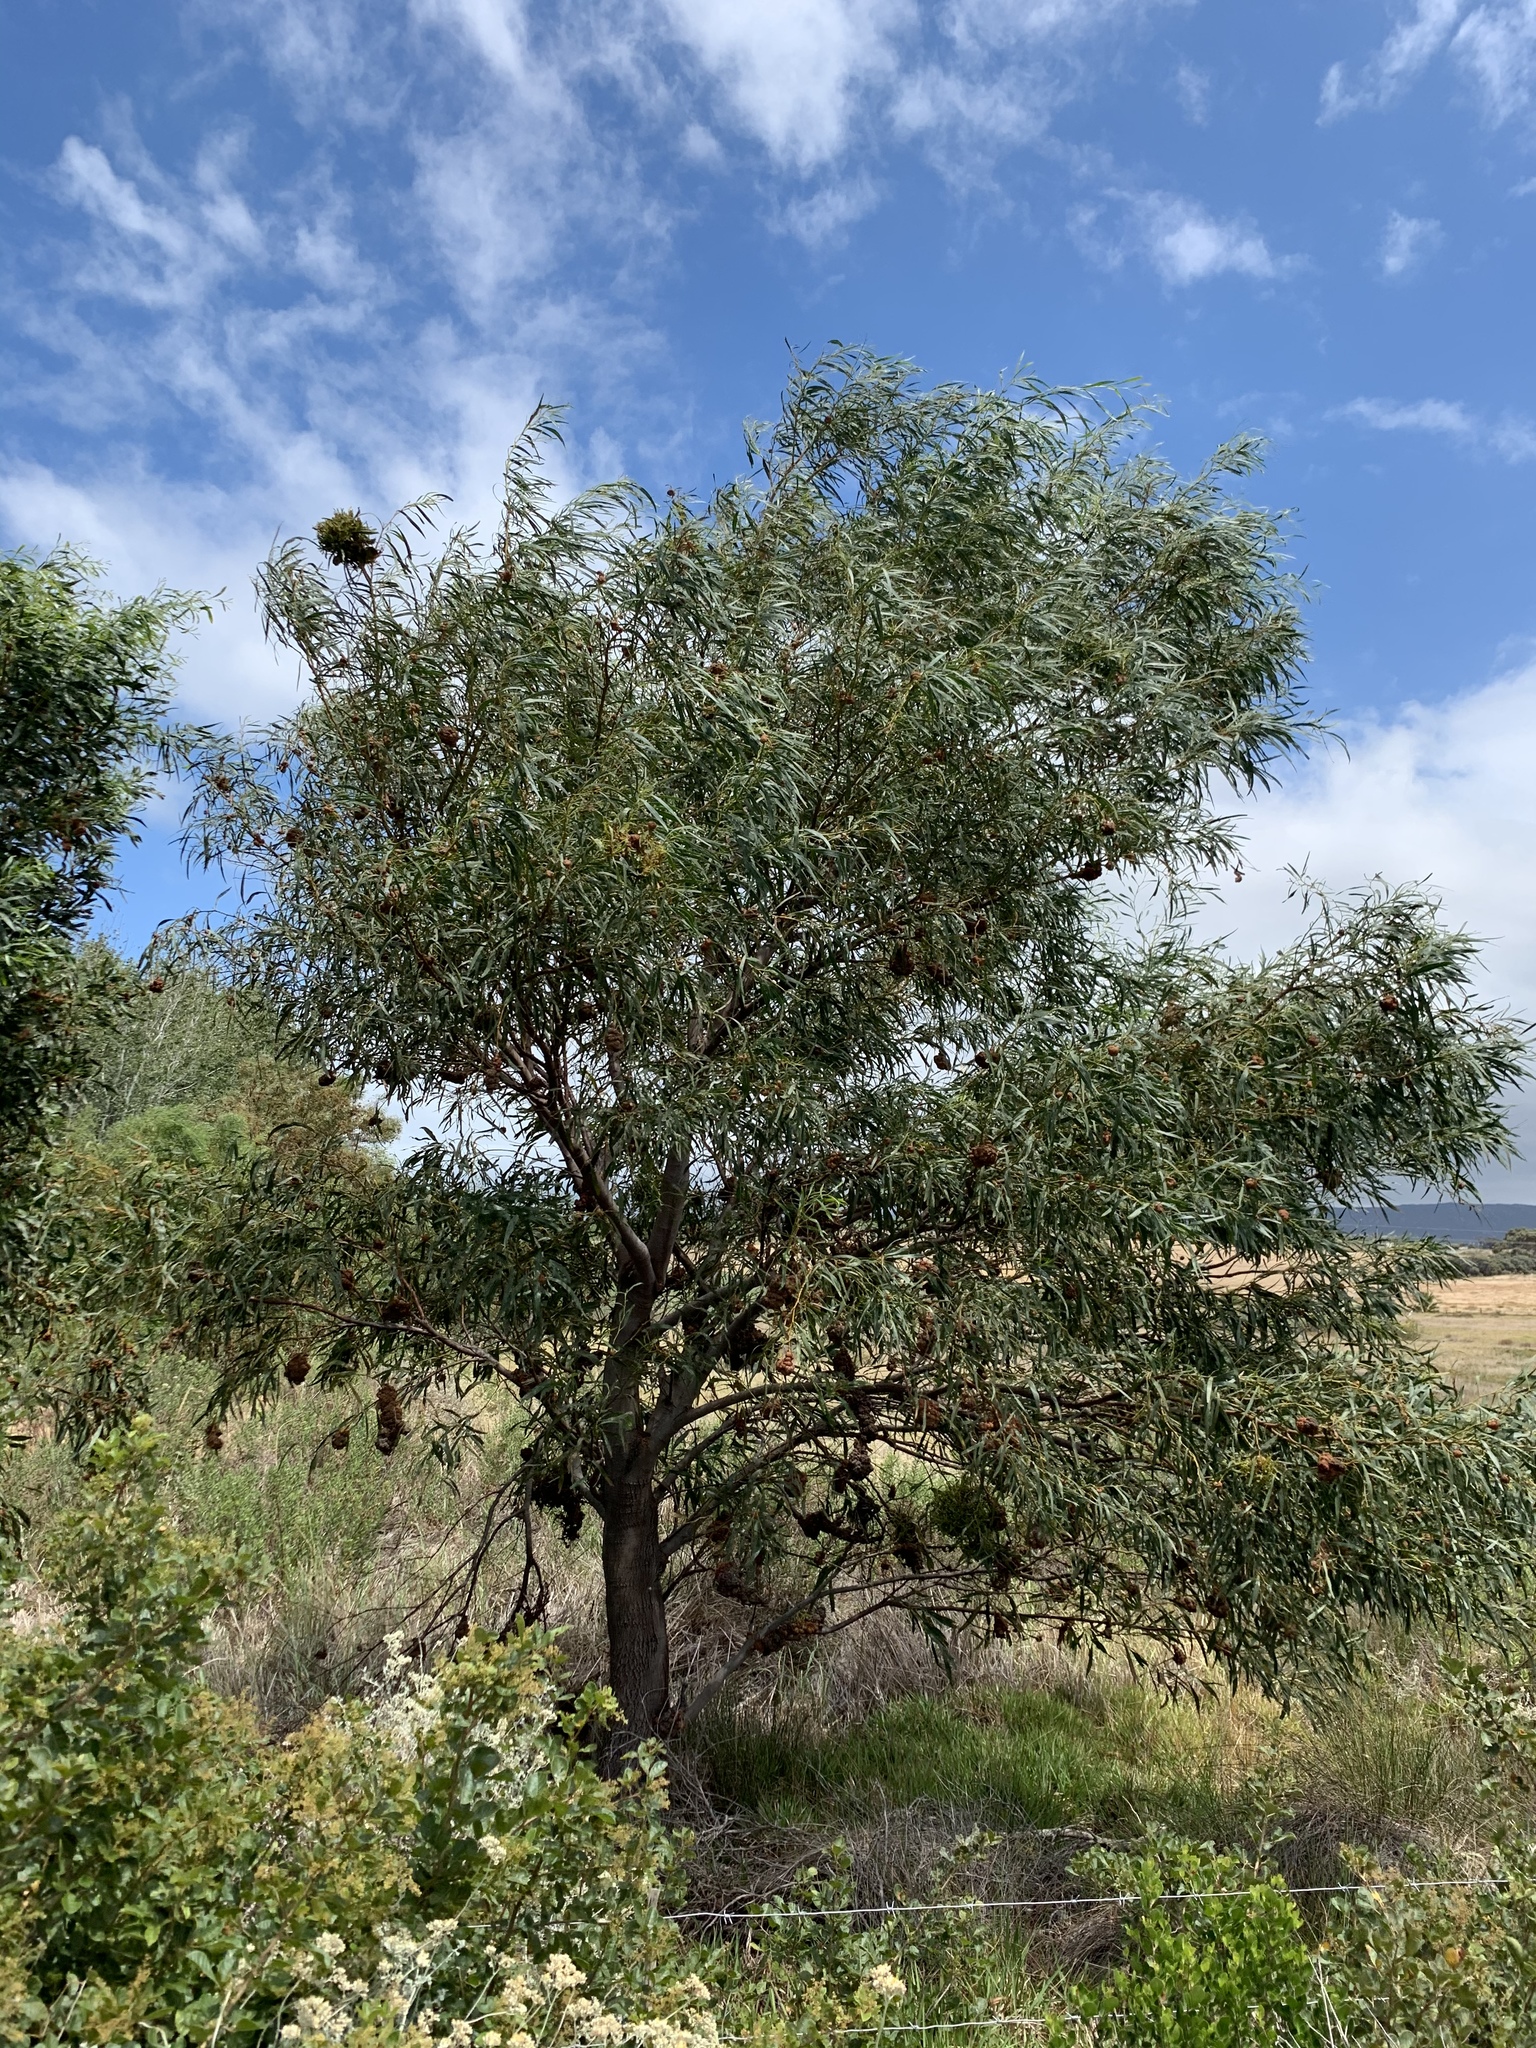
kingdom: Plantae
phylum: Tracheophyta
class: Magnoliopsida
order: Fabales
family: Fabaceae
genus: Acacia
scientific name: Acacia saligna
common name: Orange wattle
